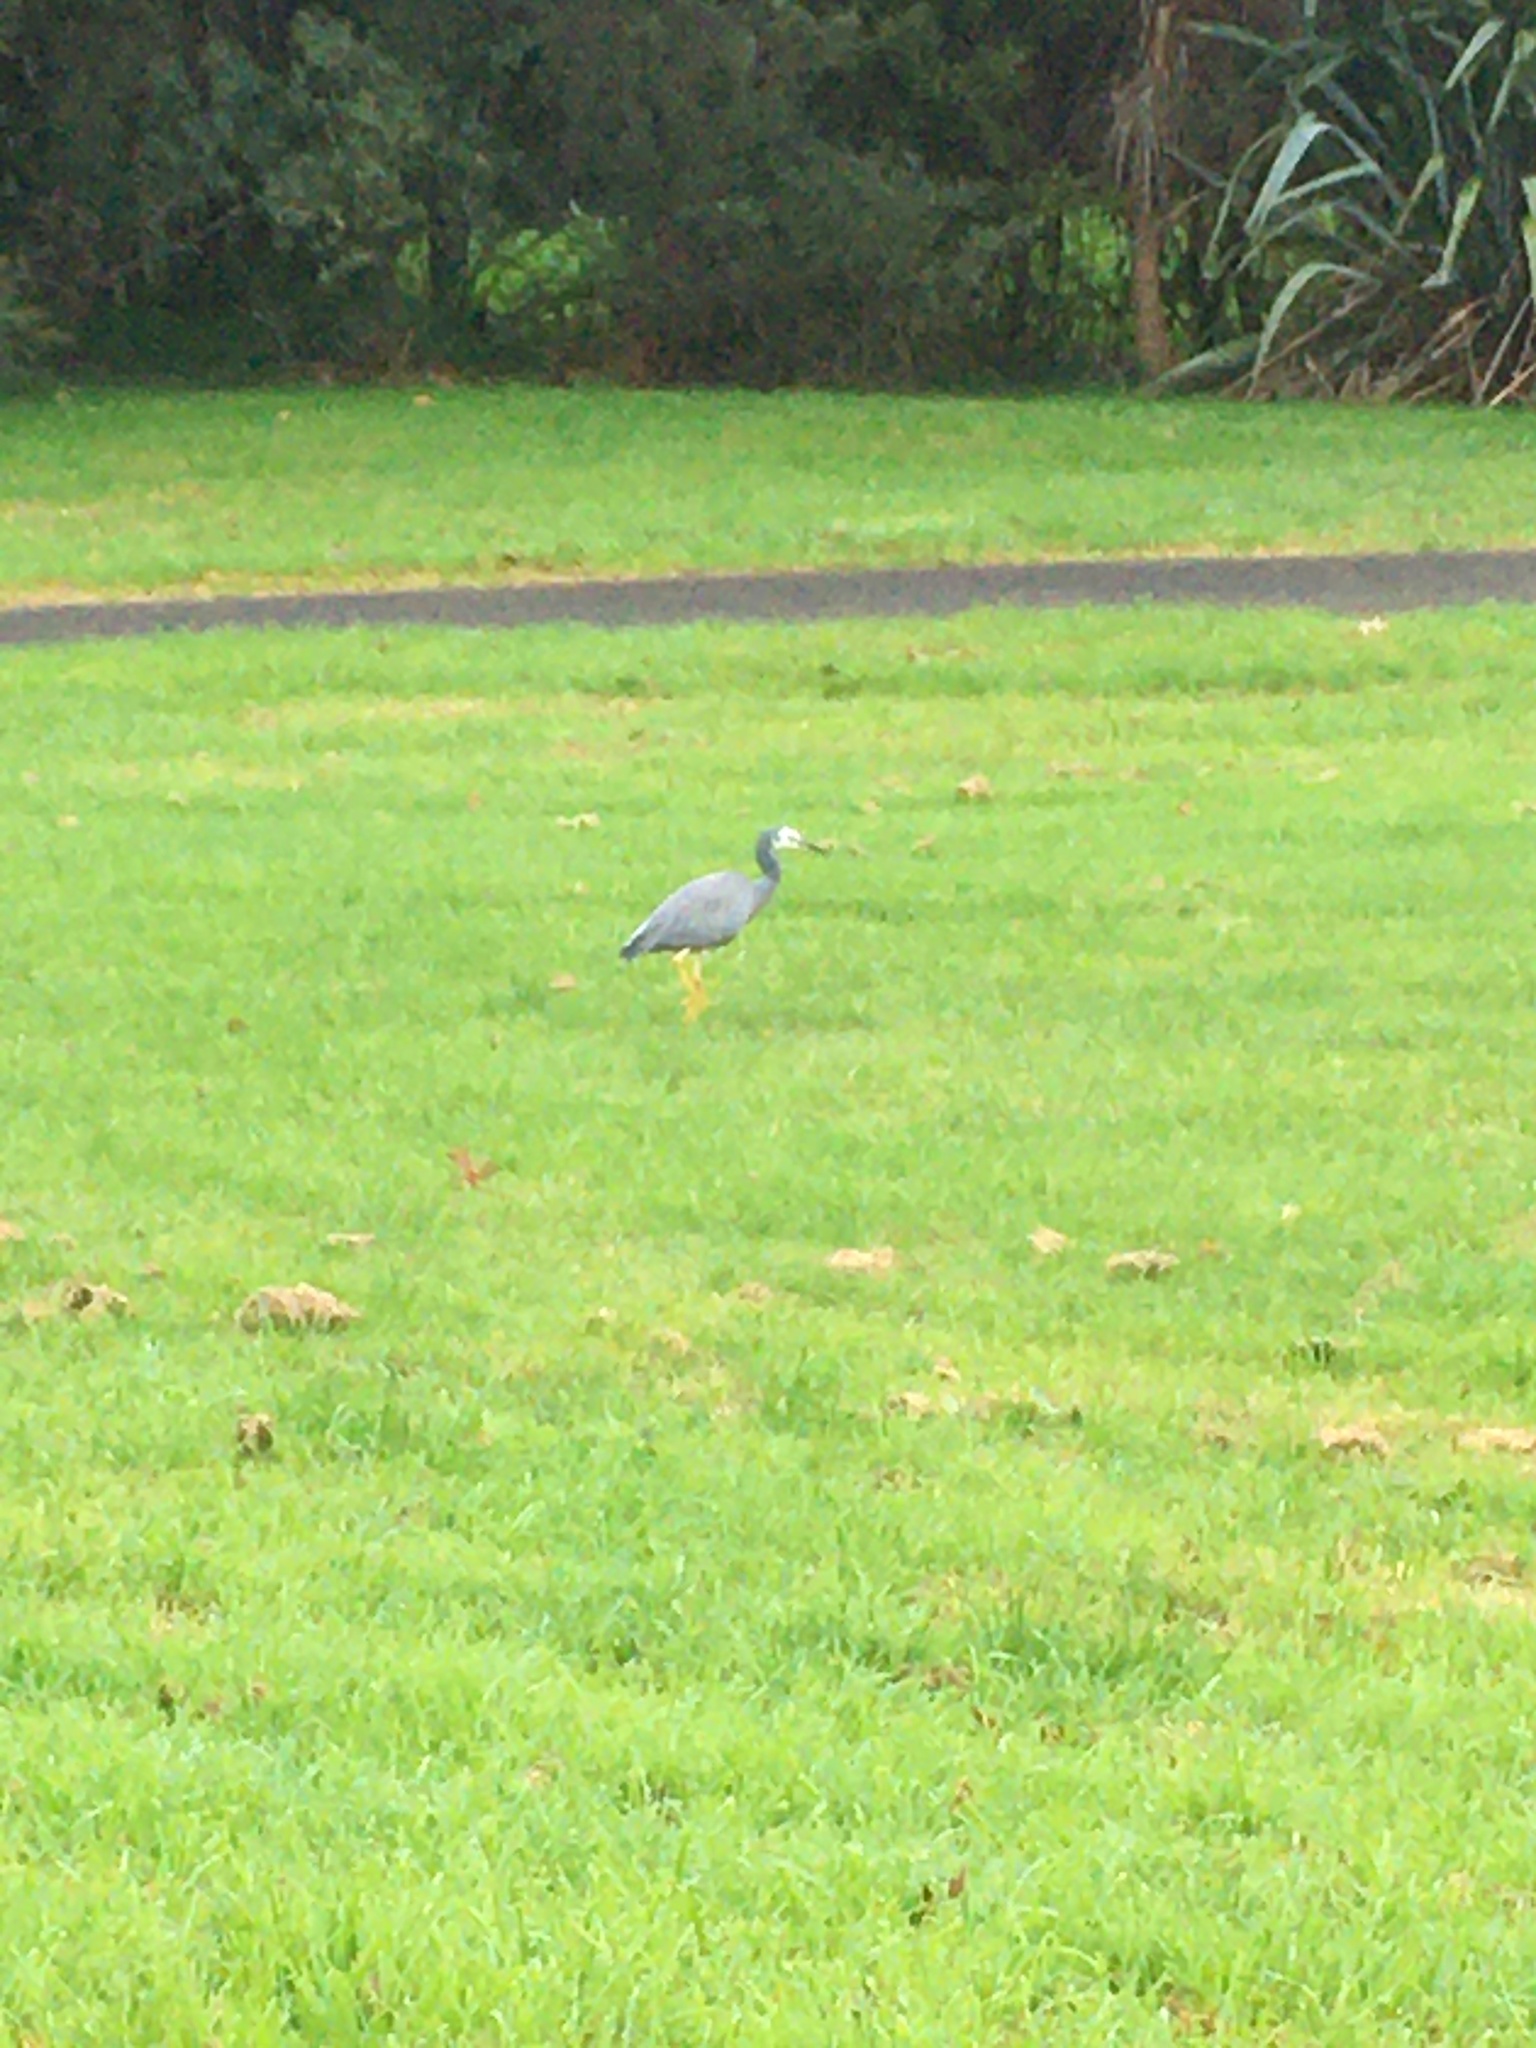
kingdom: Animalia
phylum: Chordata
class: Aves
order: Pelecaniformes
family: Ardeidae
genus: Egretta
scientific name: Egretta novaehollandiae
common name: White-faced heron
